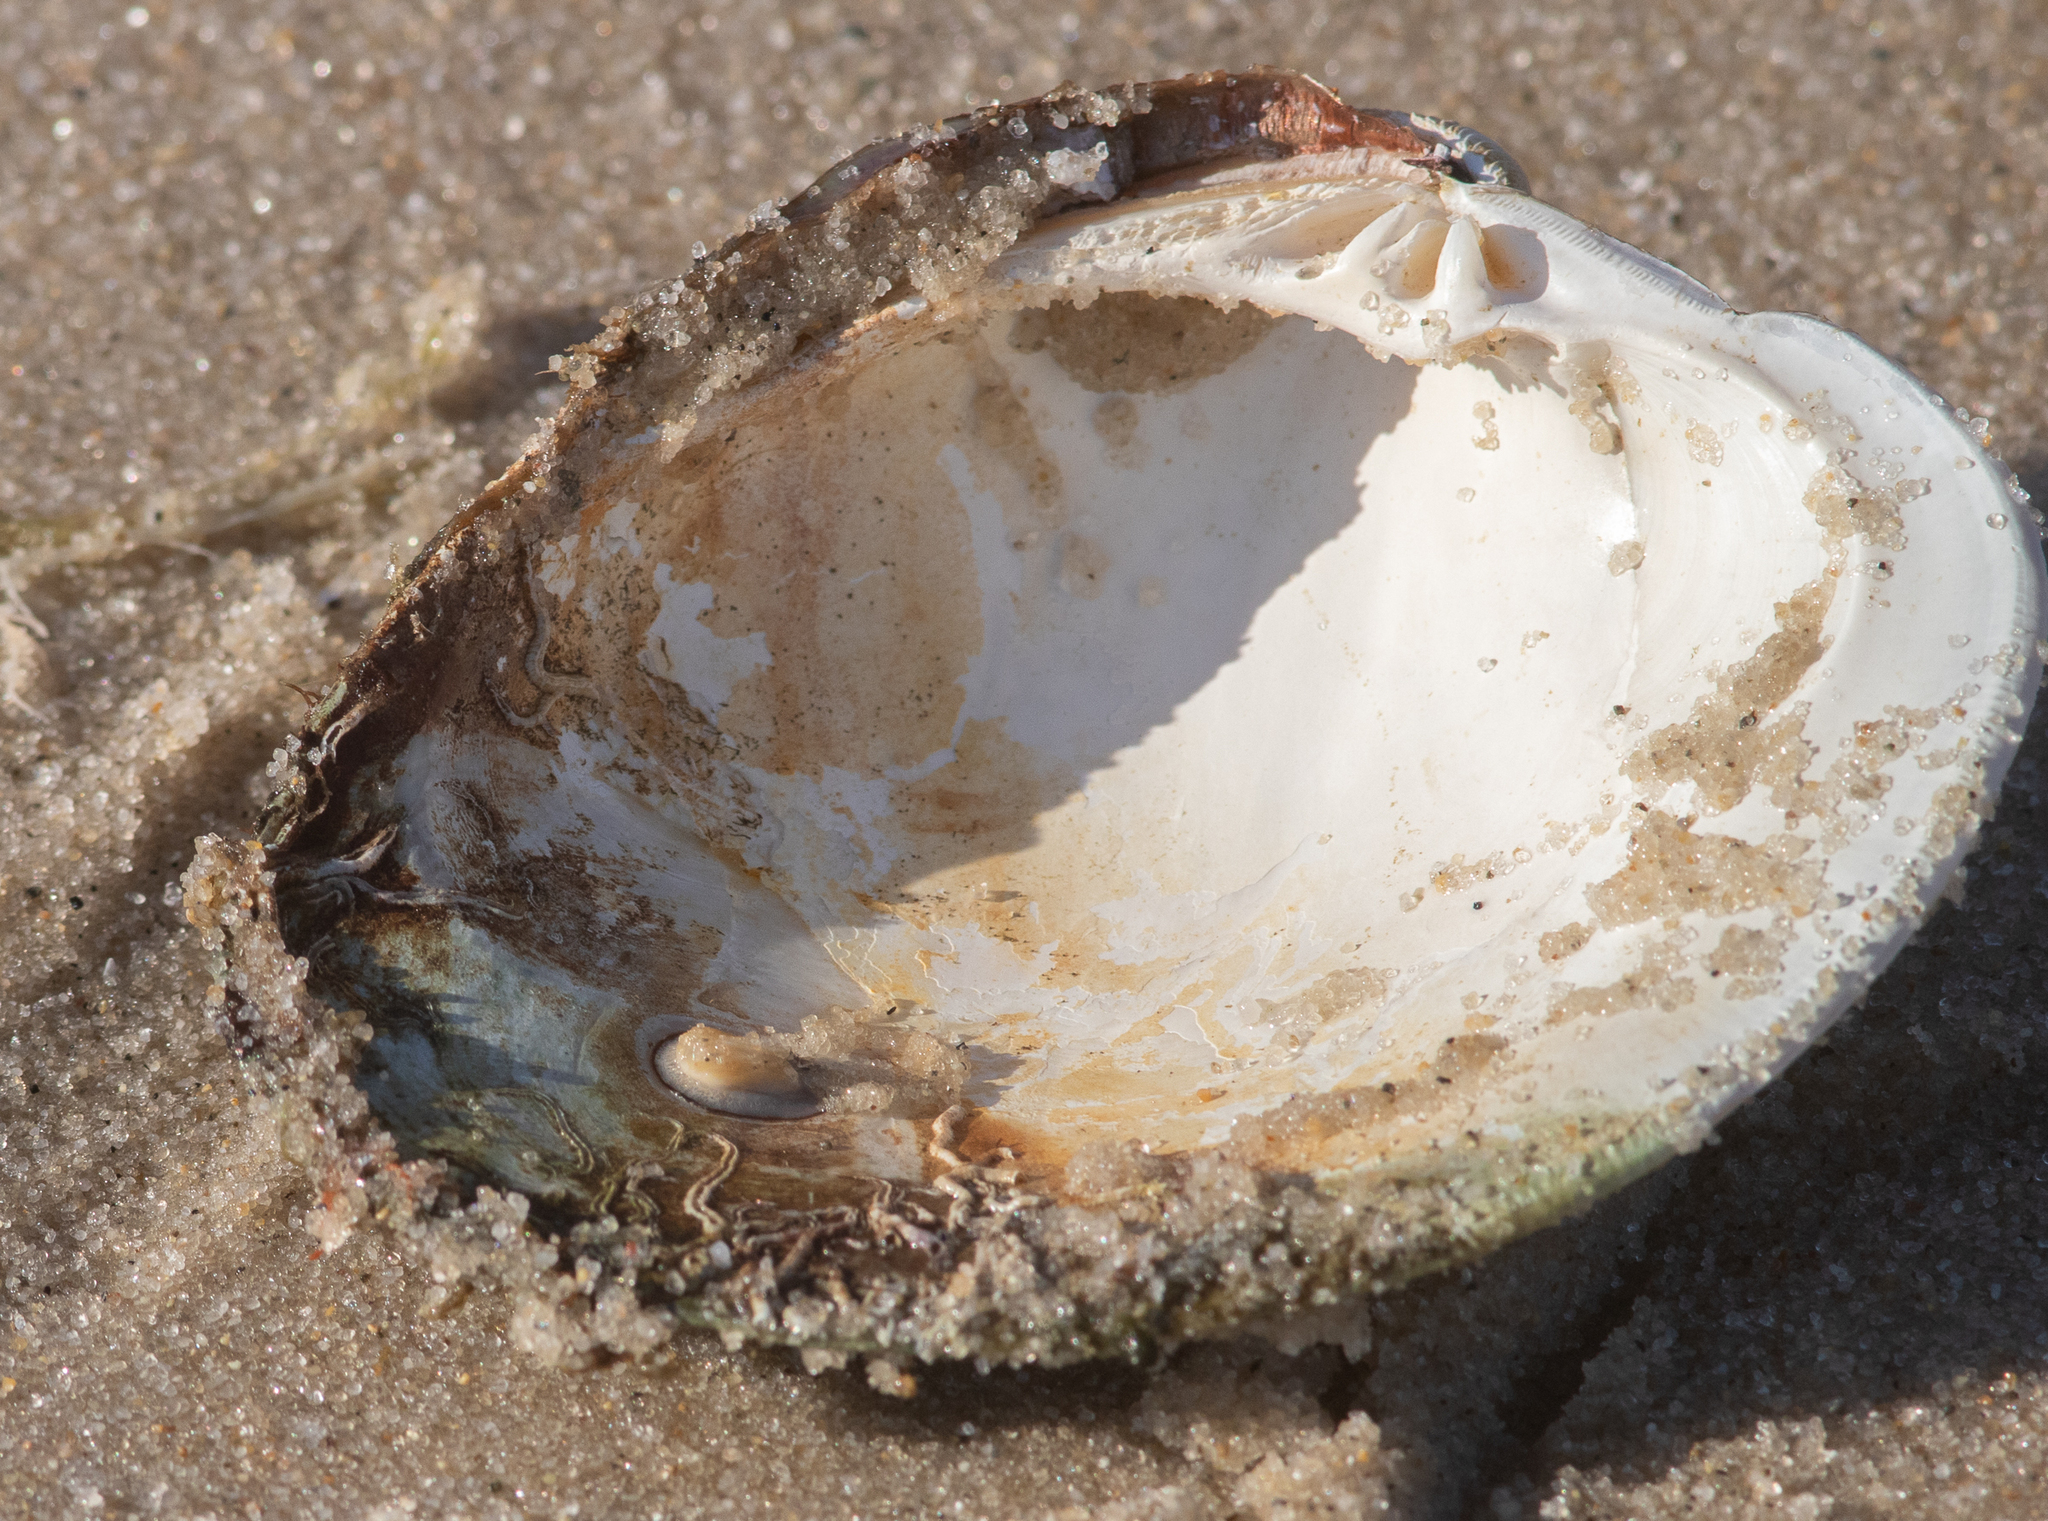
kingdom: Animalia
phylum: Mollusca
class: Bivalvia
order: Venerida
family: Veneridae
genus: Mercenaria
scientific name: Mercenaria mercenaria
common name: American hard-shelled clam
